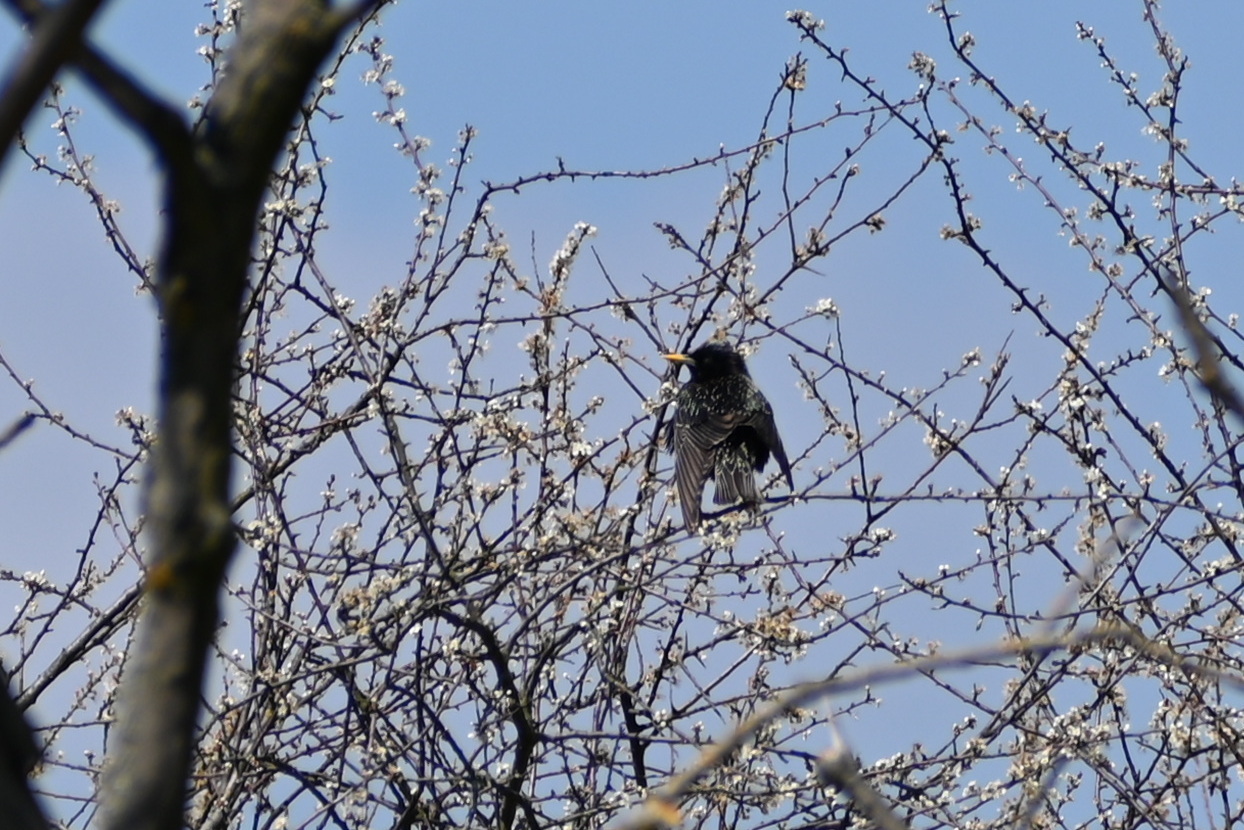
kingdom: Animalia
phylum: Chordata
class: Aves
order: Passeriformes
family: Sturnidae
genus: Sturnus
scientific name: Sturnus vulgaris
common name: Common starling
